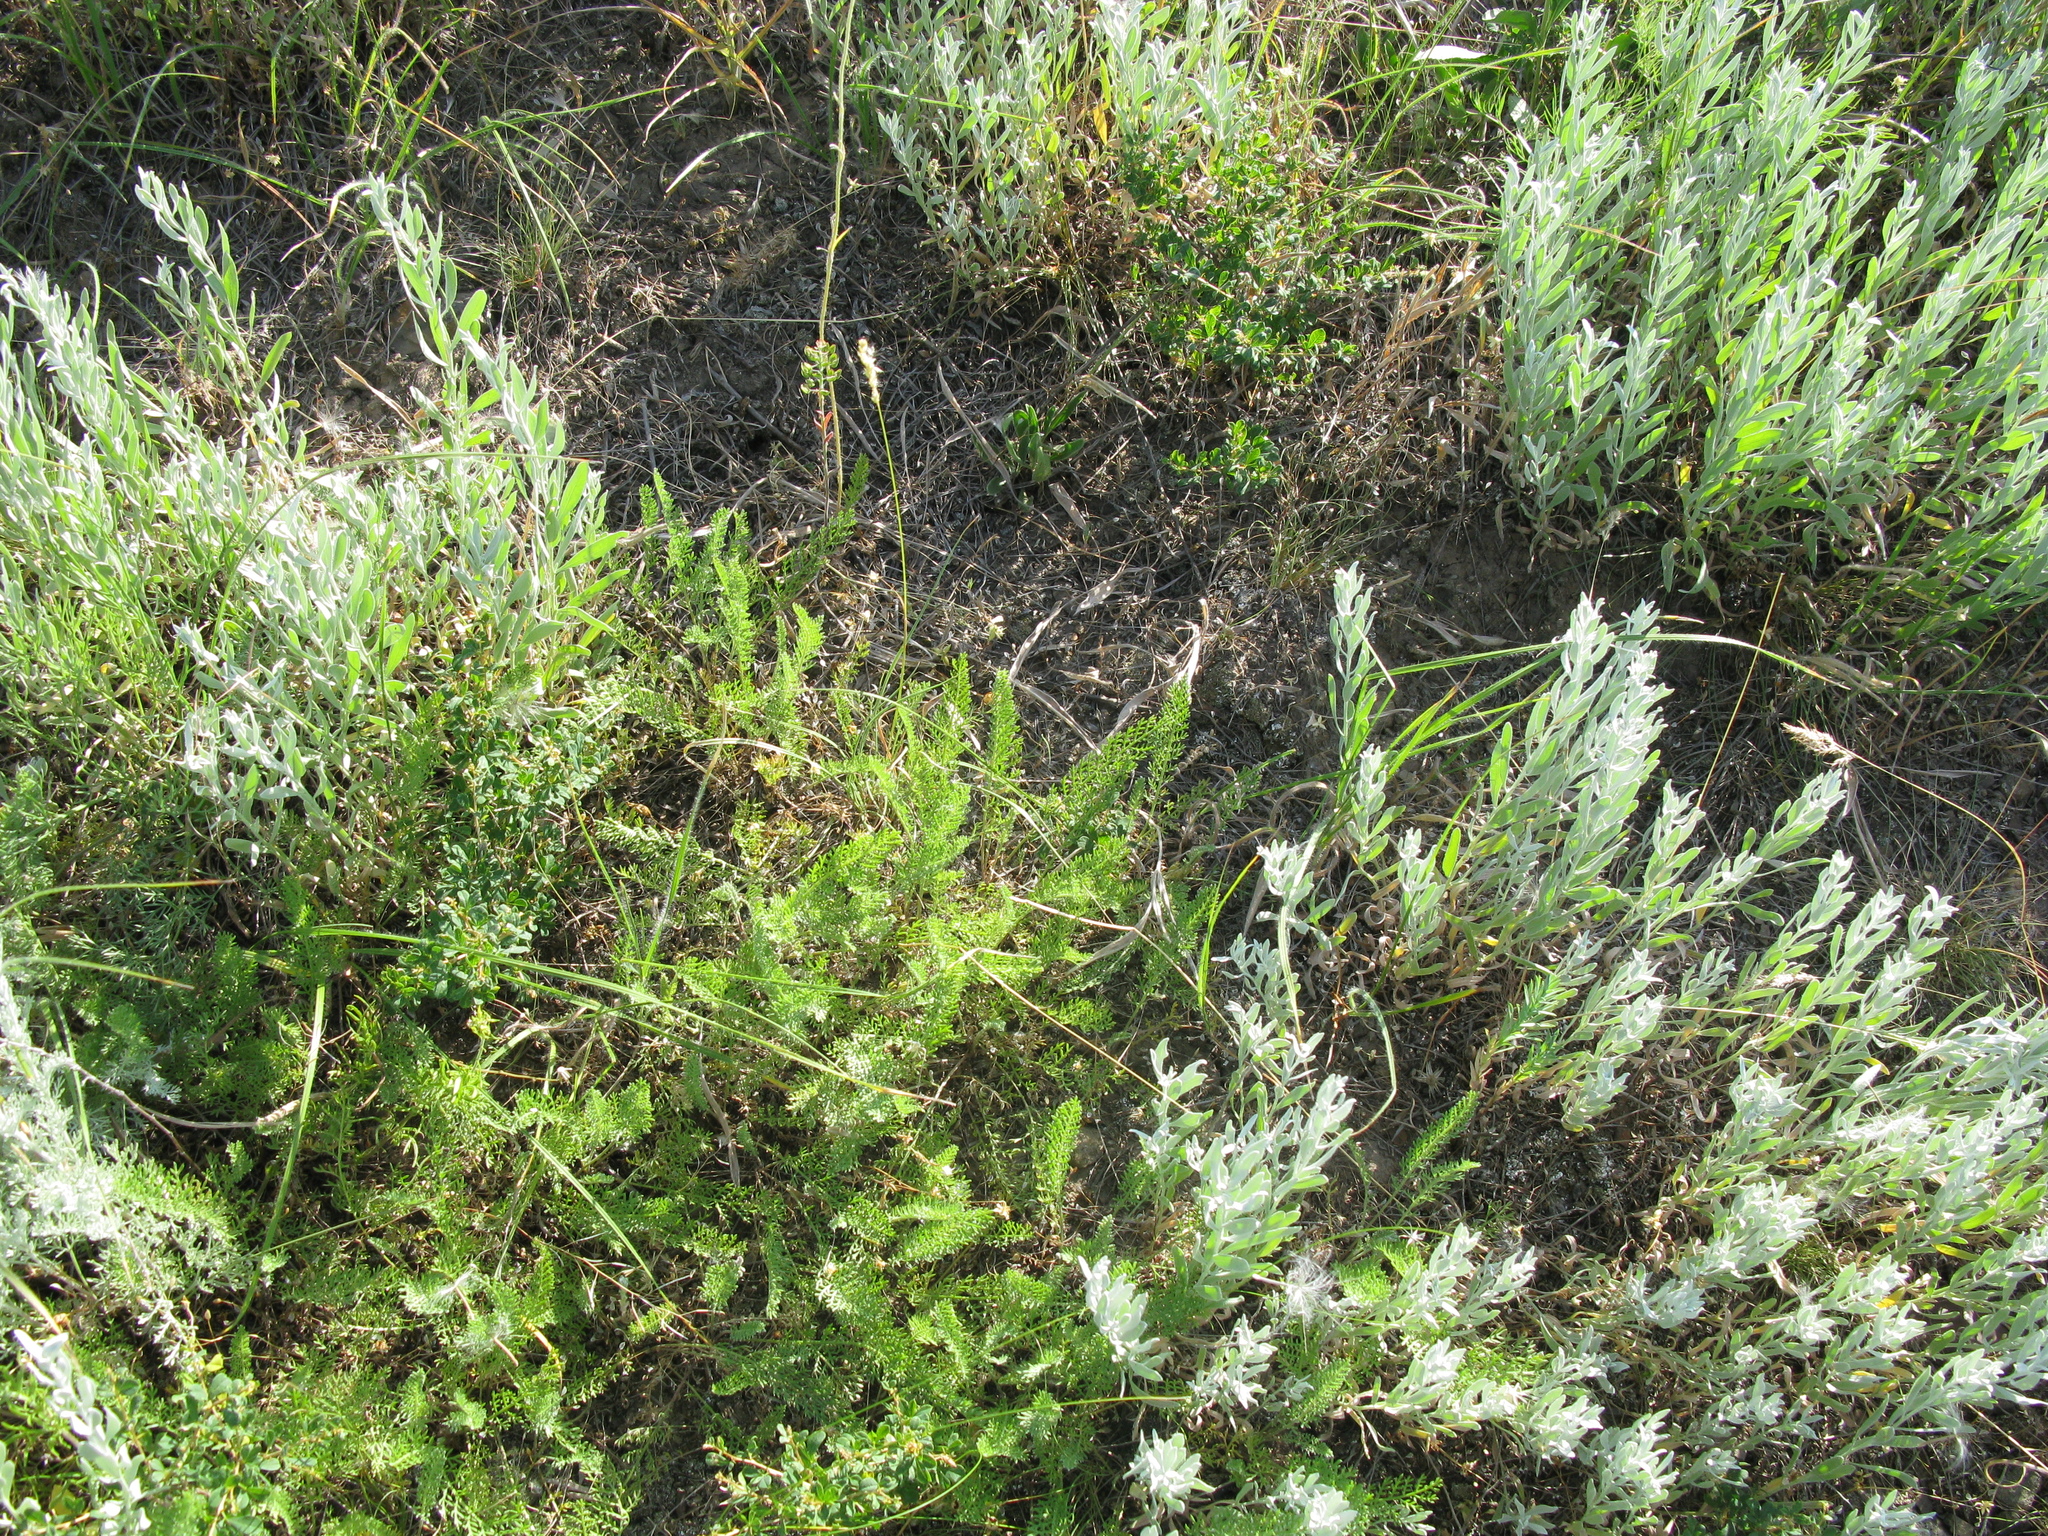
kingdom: Plantae
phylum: Tracheophyta
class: Magnoliopsida
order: Asterales
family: Asteraceae
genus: Galatella
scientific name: Galatella villosa
